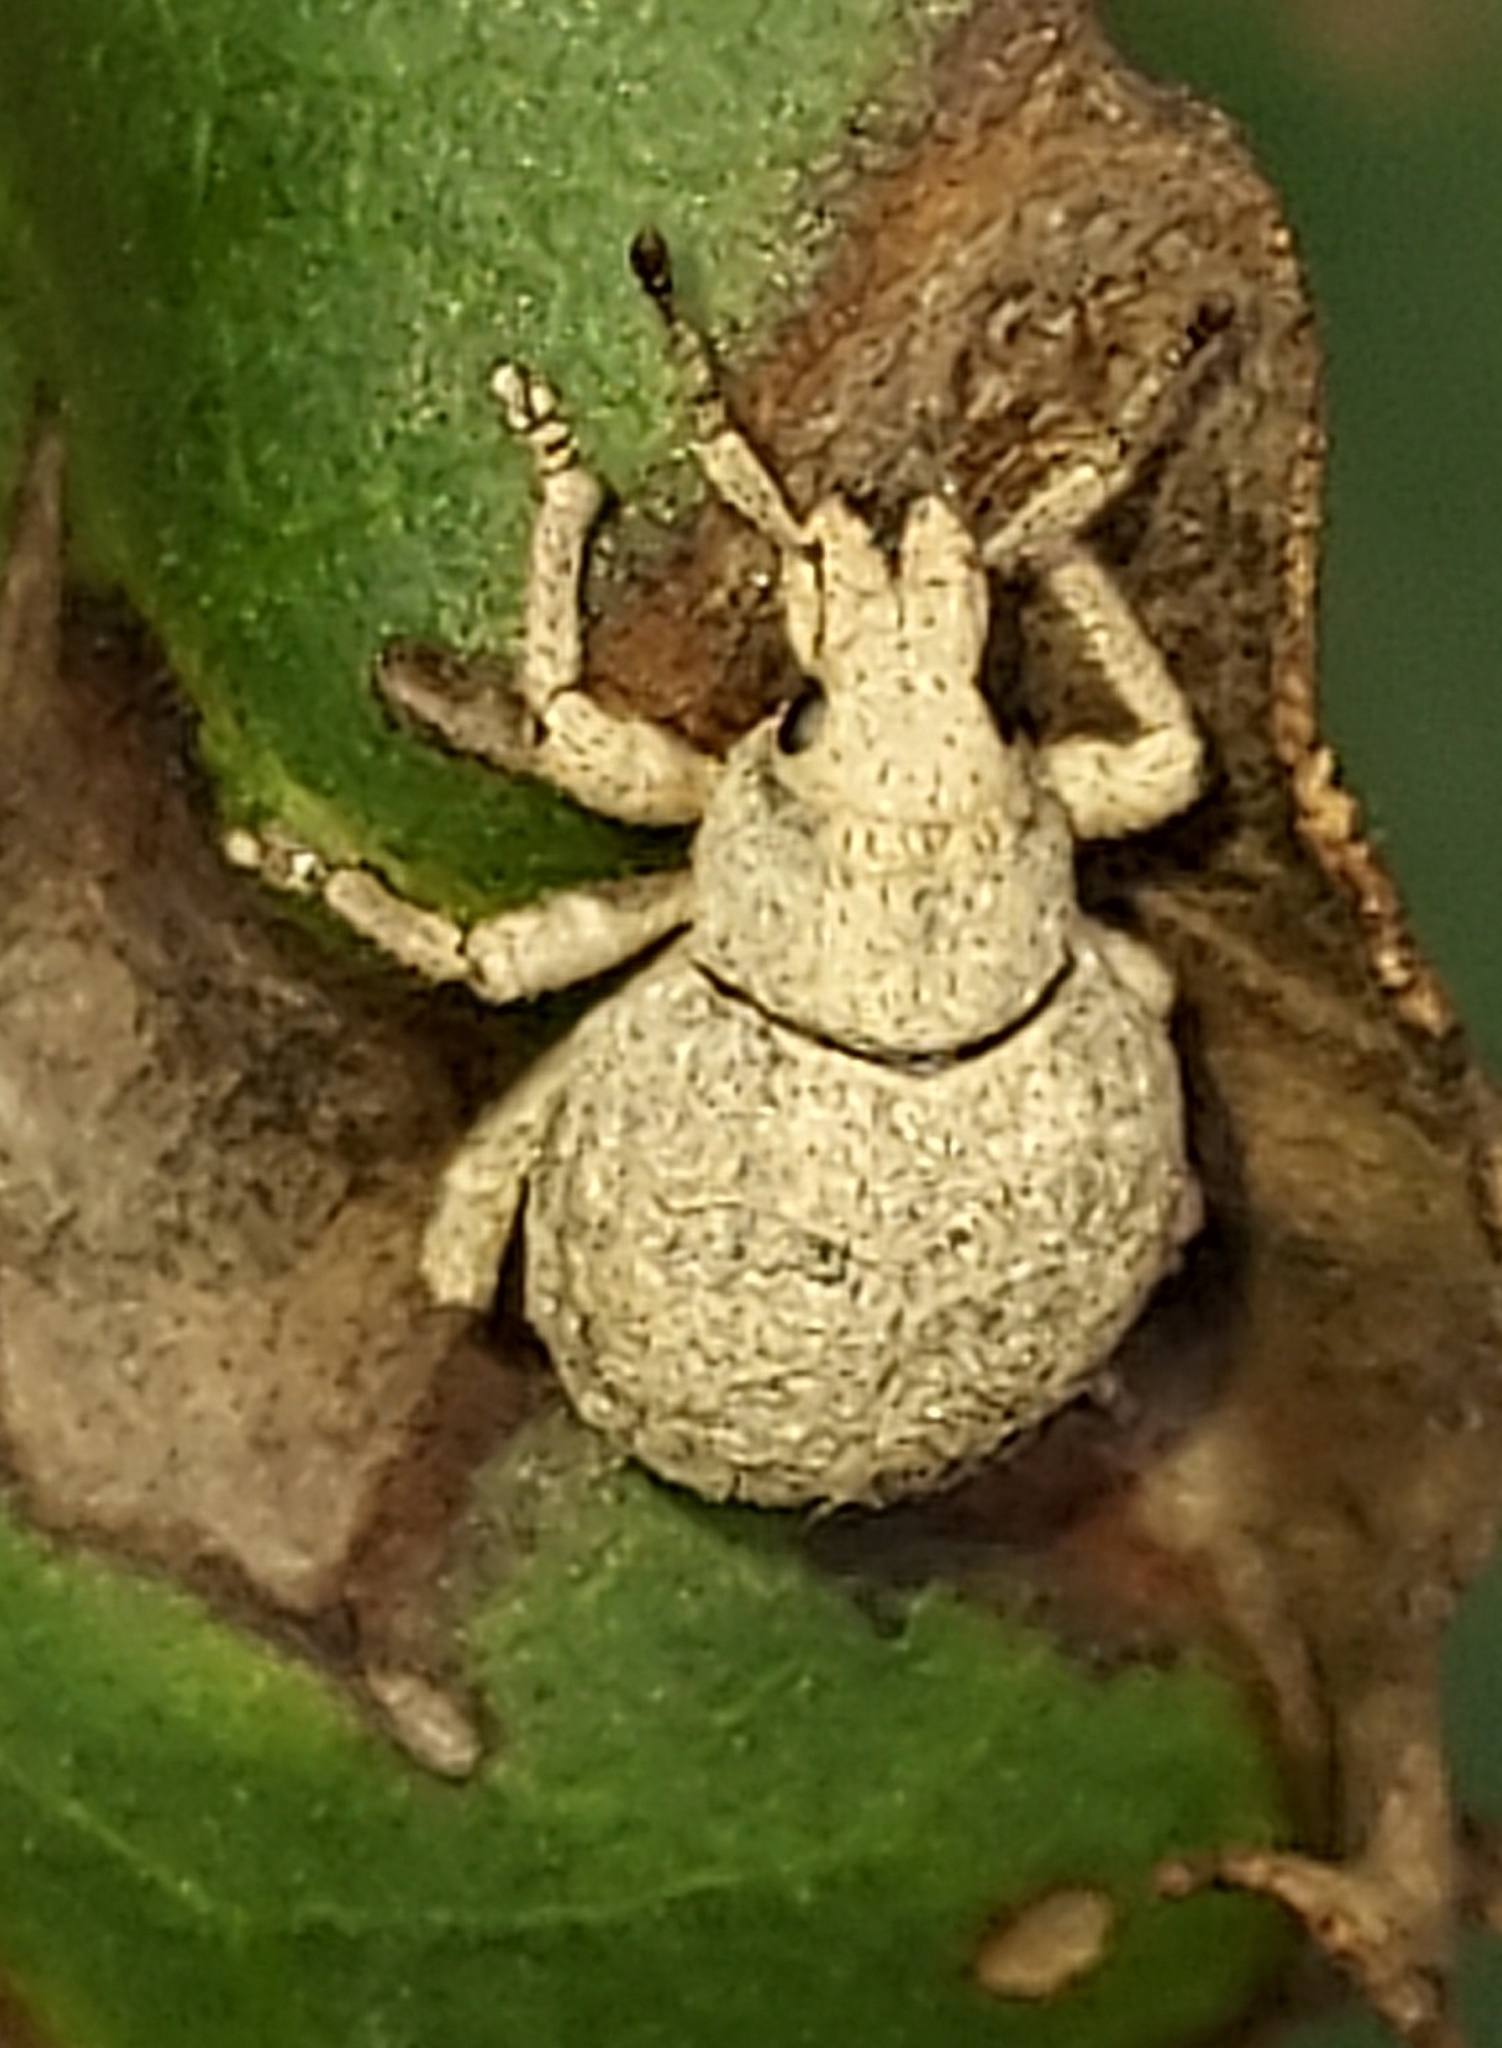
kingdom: Animalia
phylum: Arthropoda
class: Insecta
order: Coleoptera
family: Curculionidae
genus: Pseudocneorhinus
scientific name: Pseudocneorhinus bifasciatus
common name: Two-banded japanese weevil
